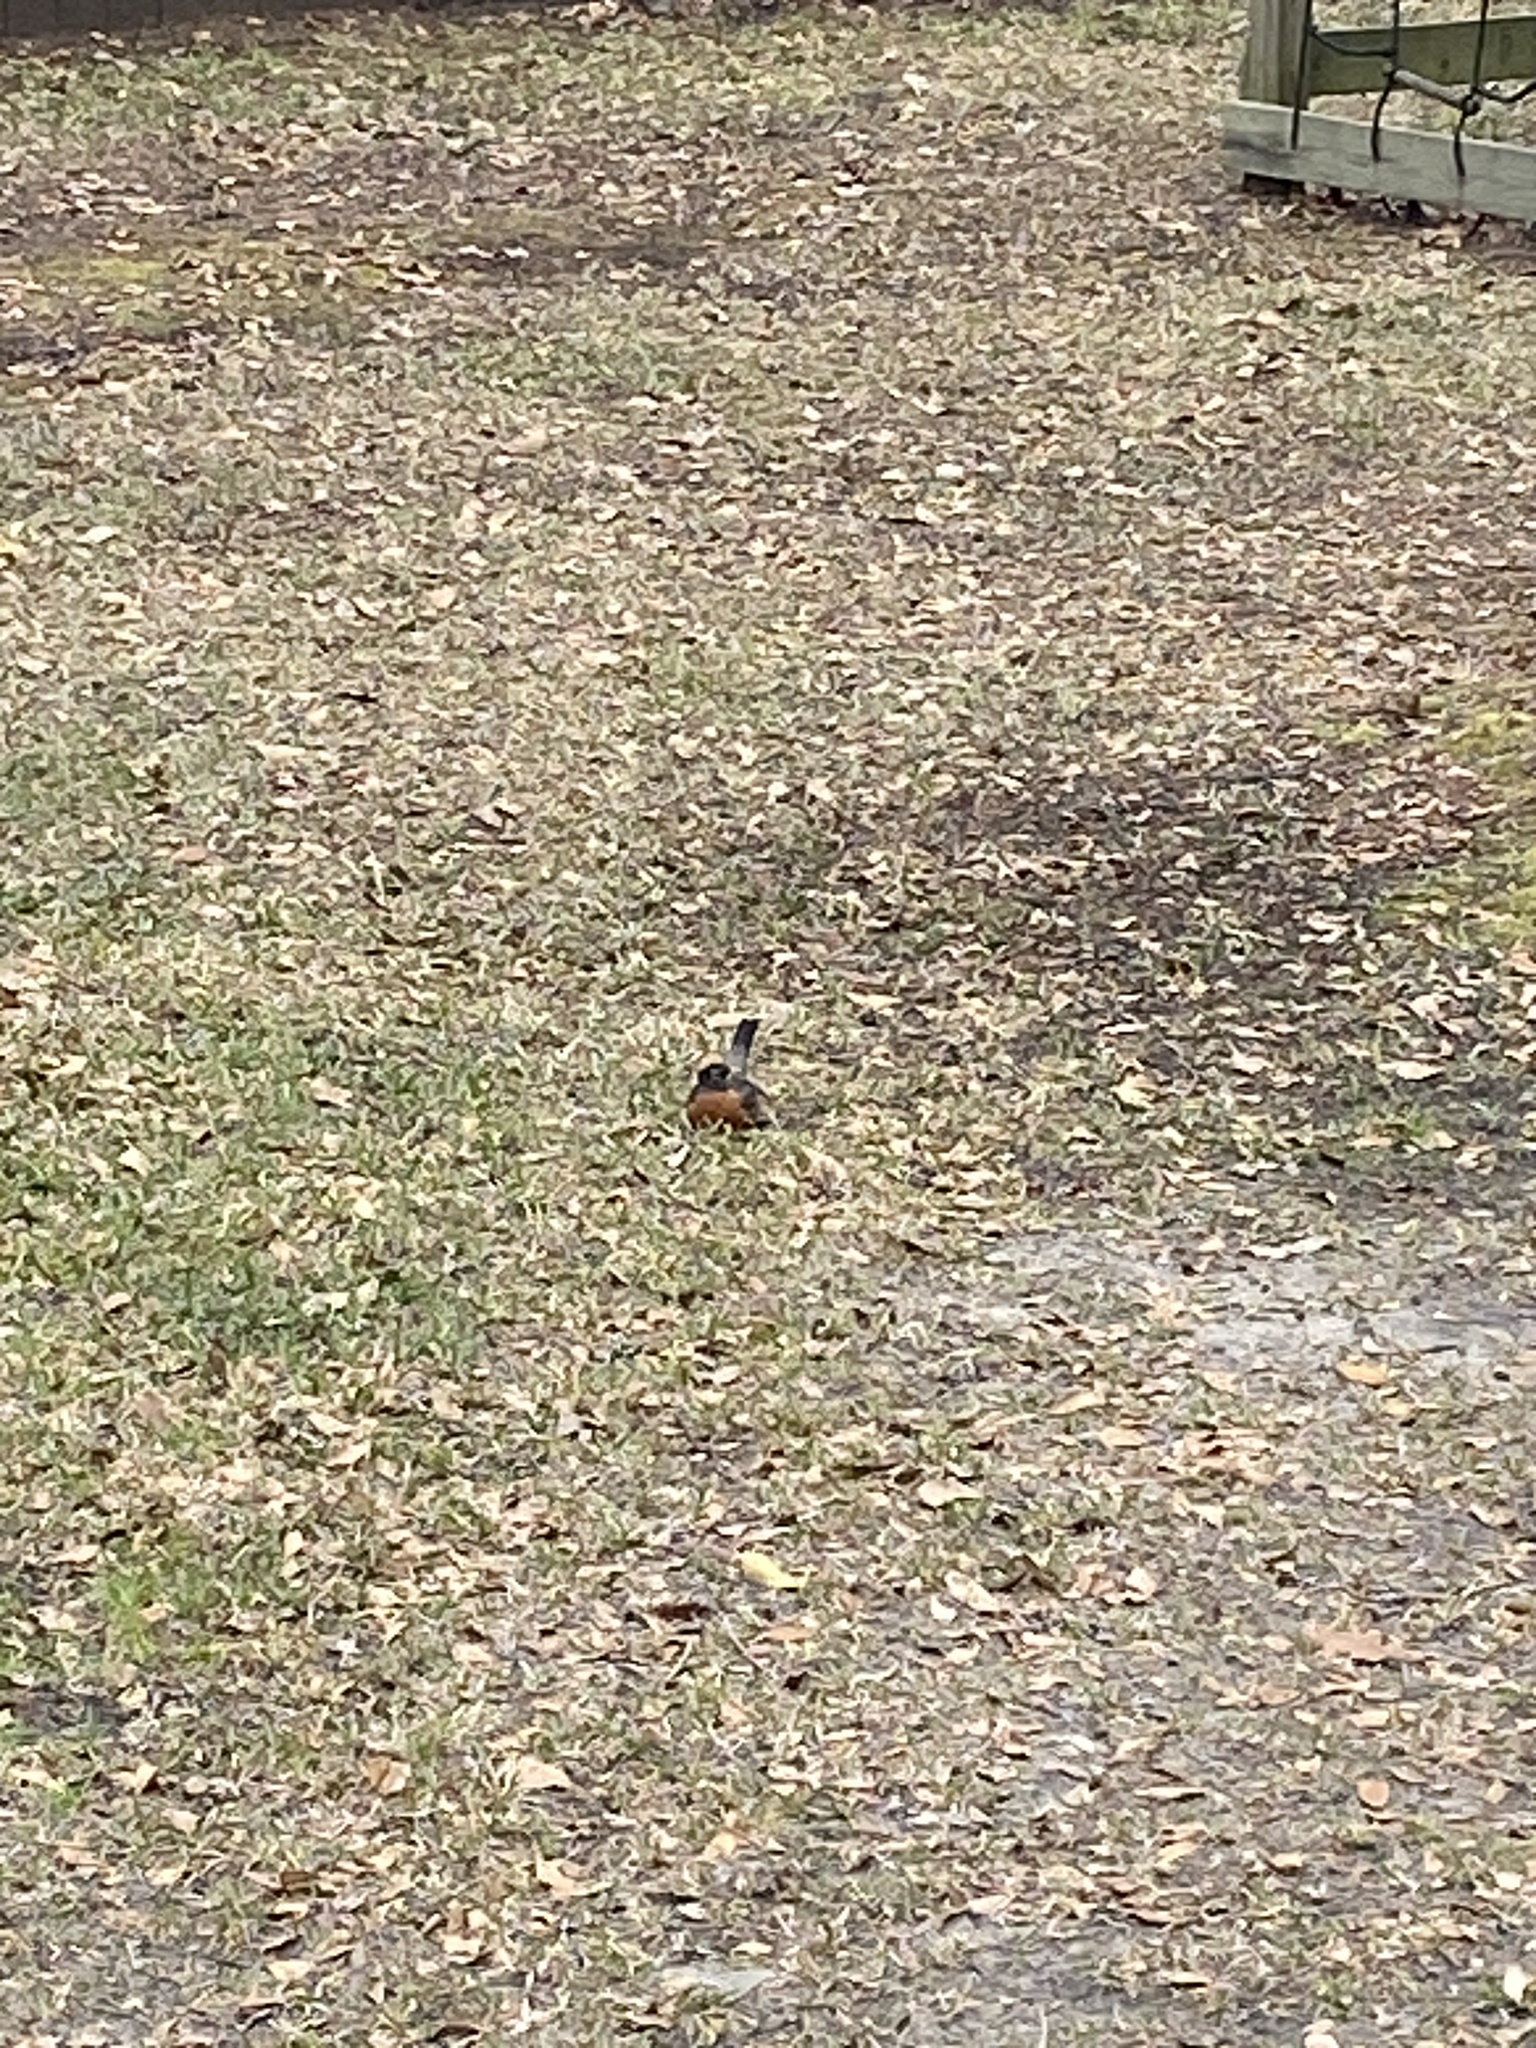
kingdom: Animalia
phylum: Chordata
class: Aves
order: Passeriformes
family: Turdidae
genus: Turdus
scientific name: Turdus migratorius
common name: American robin
